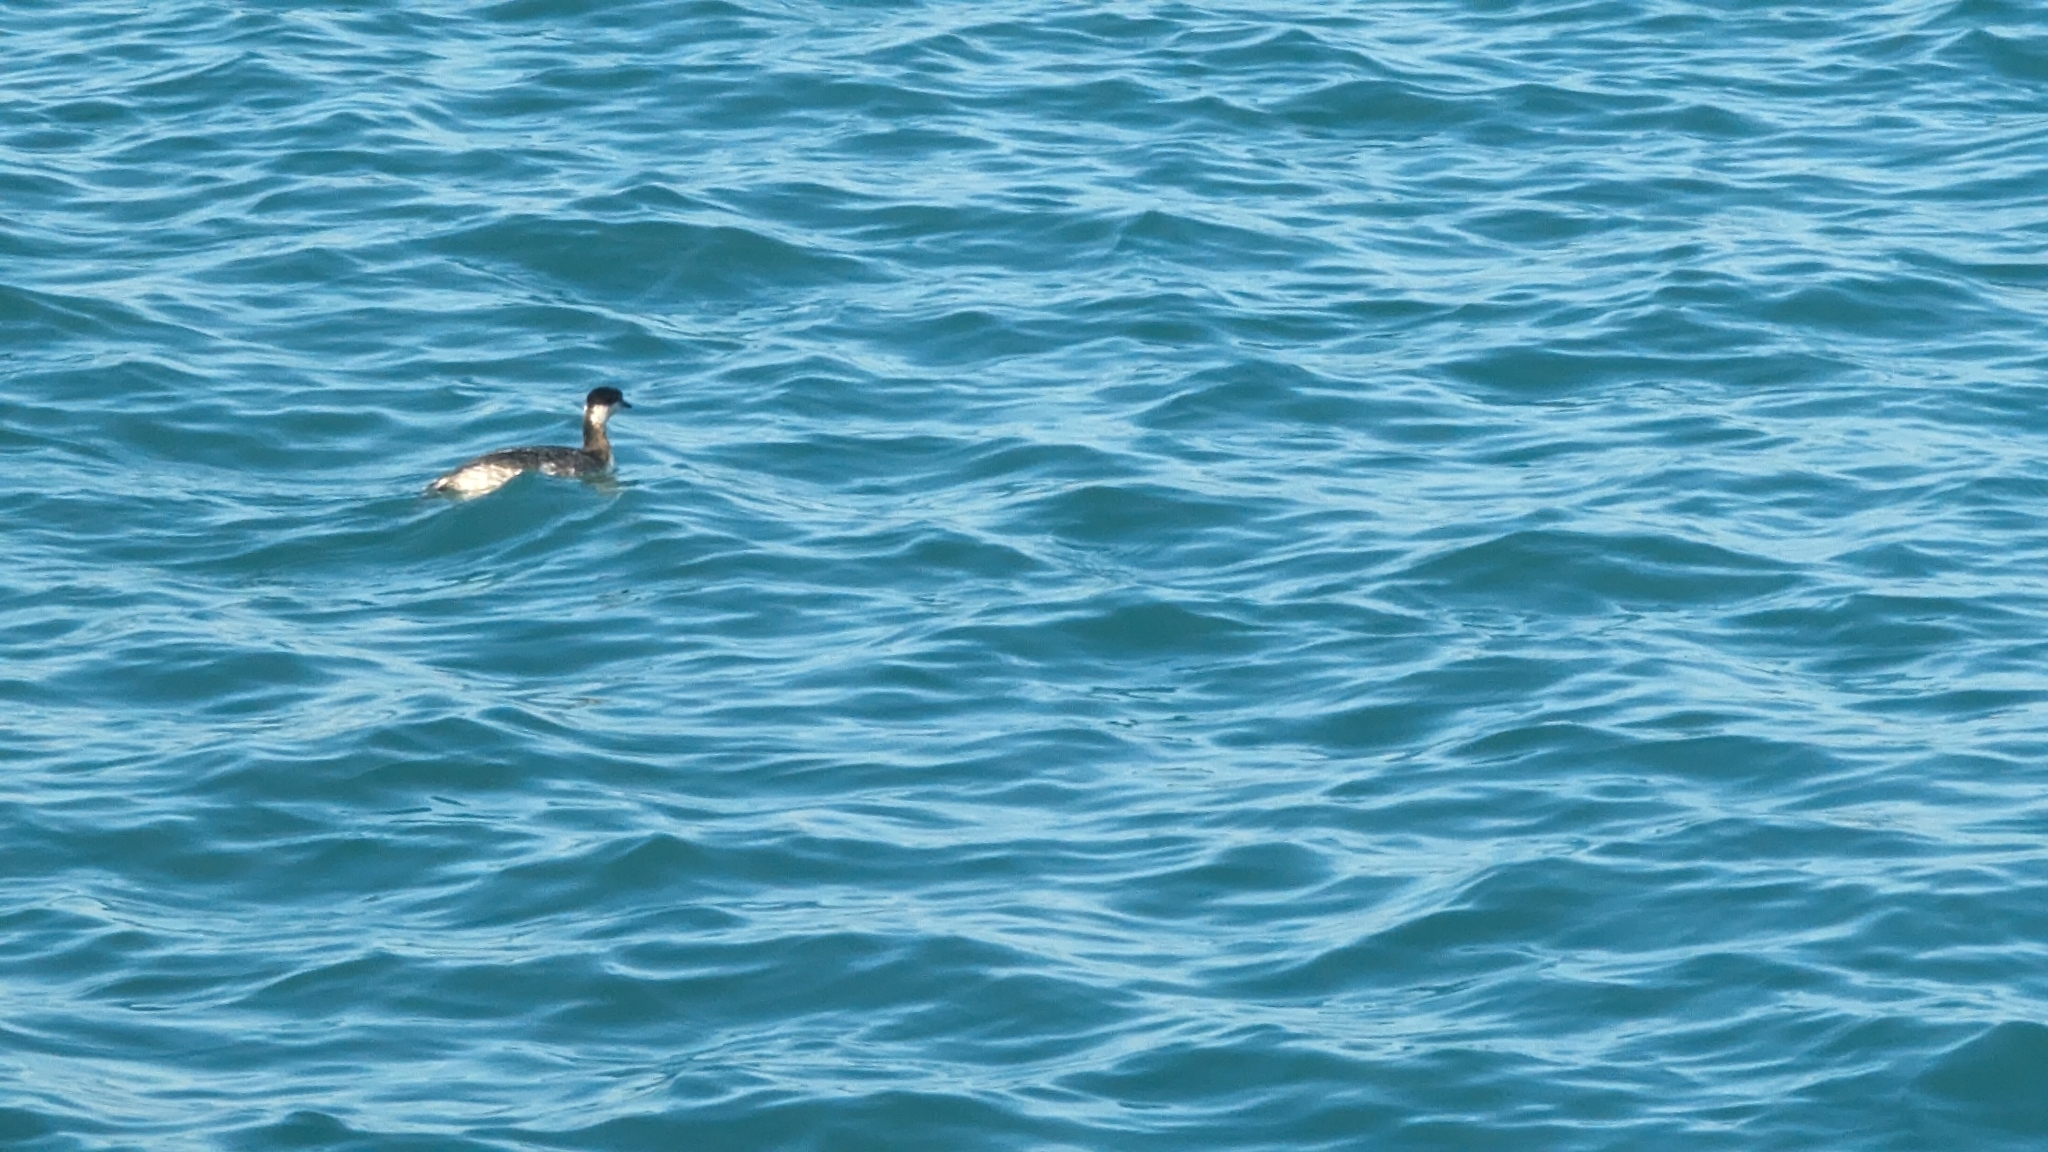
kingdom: Animalia
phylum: Chordata
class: Aves
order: Podicipediformes
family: Podicipedidae
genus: Podiceps
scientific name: Podiceps auritus
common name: Horned grebe
